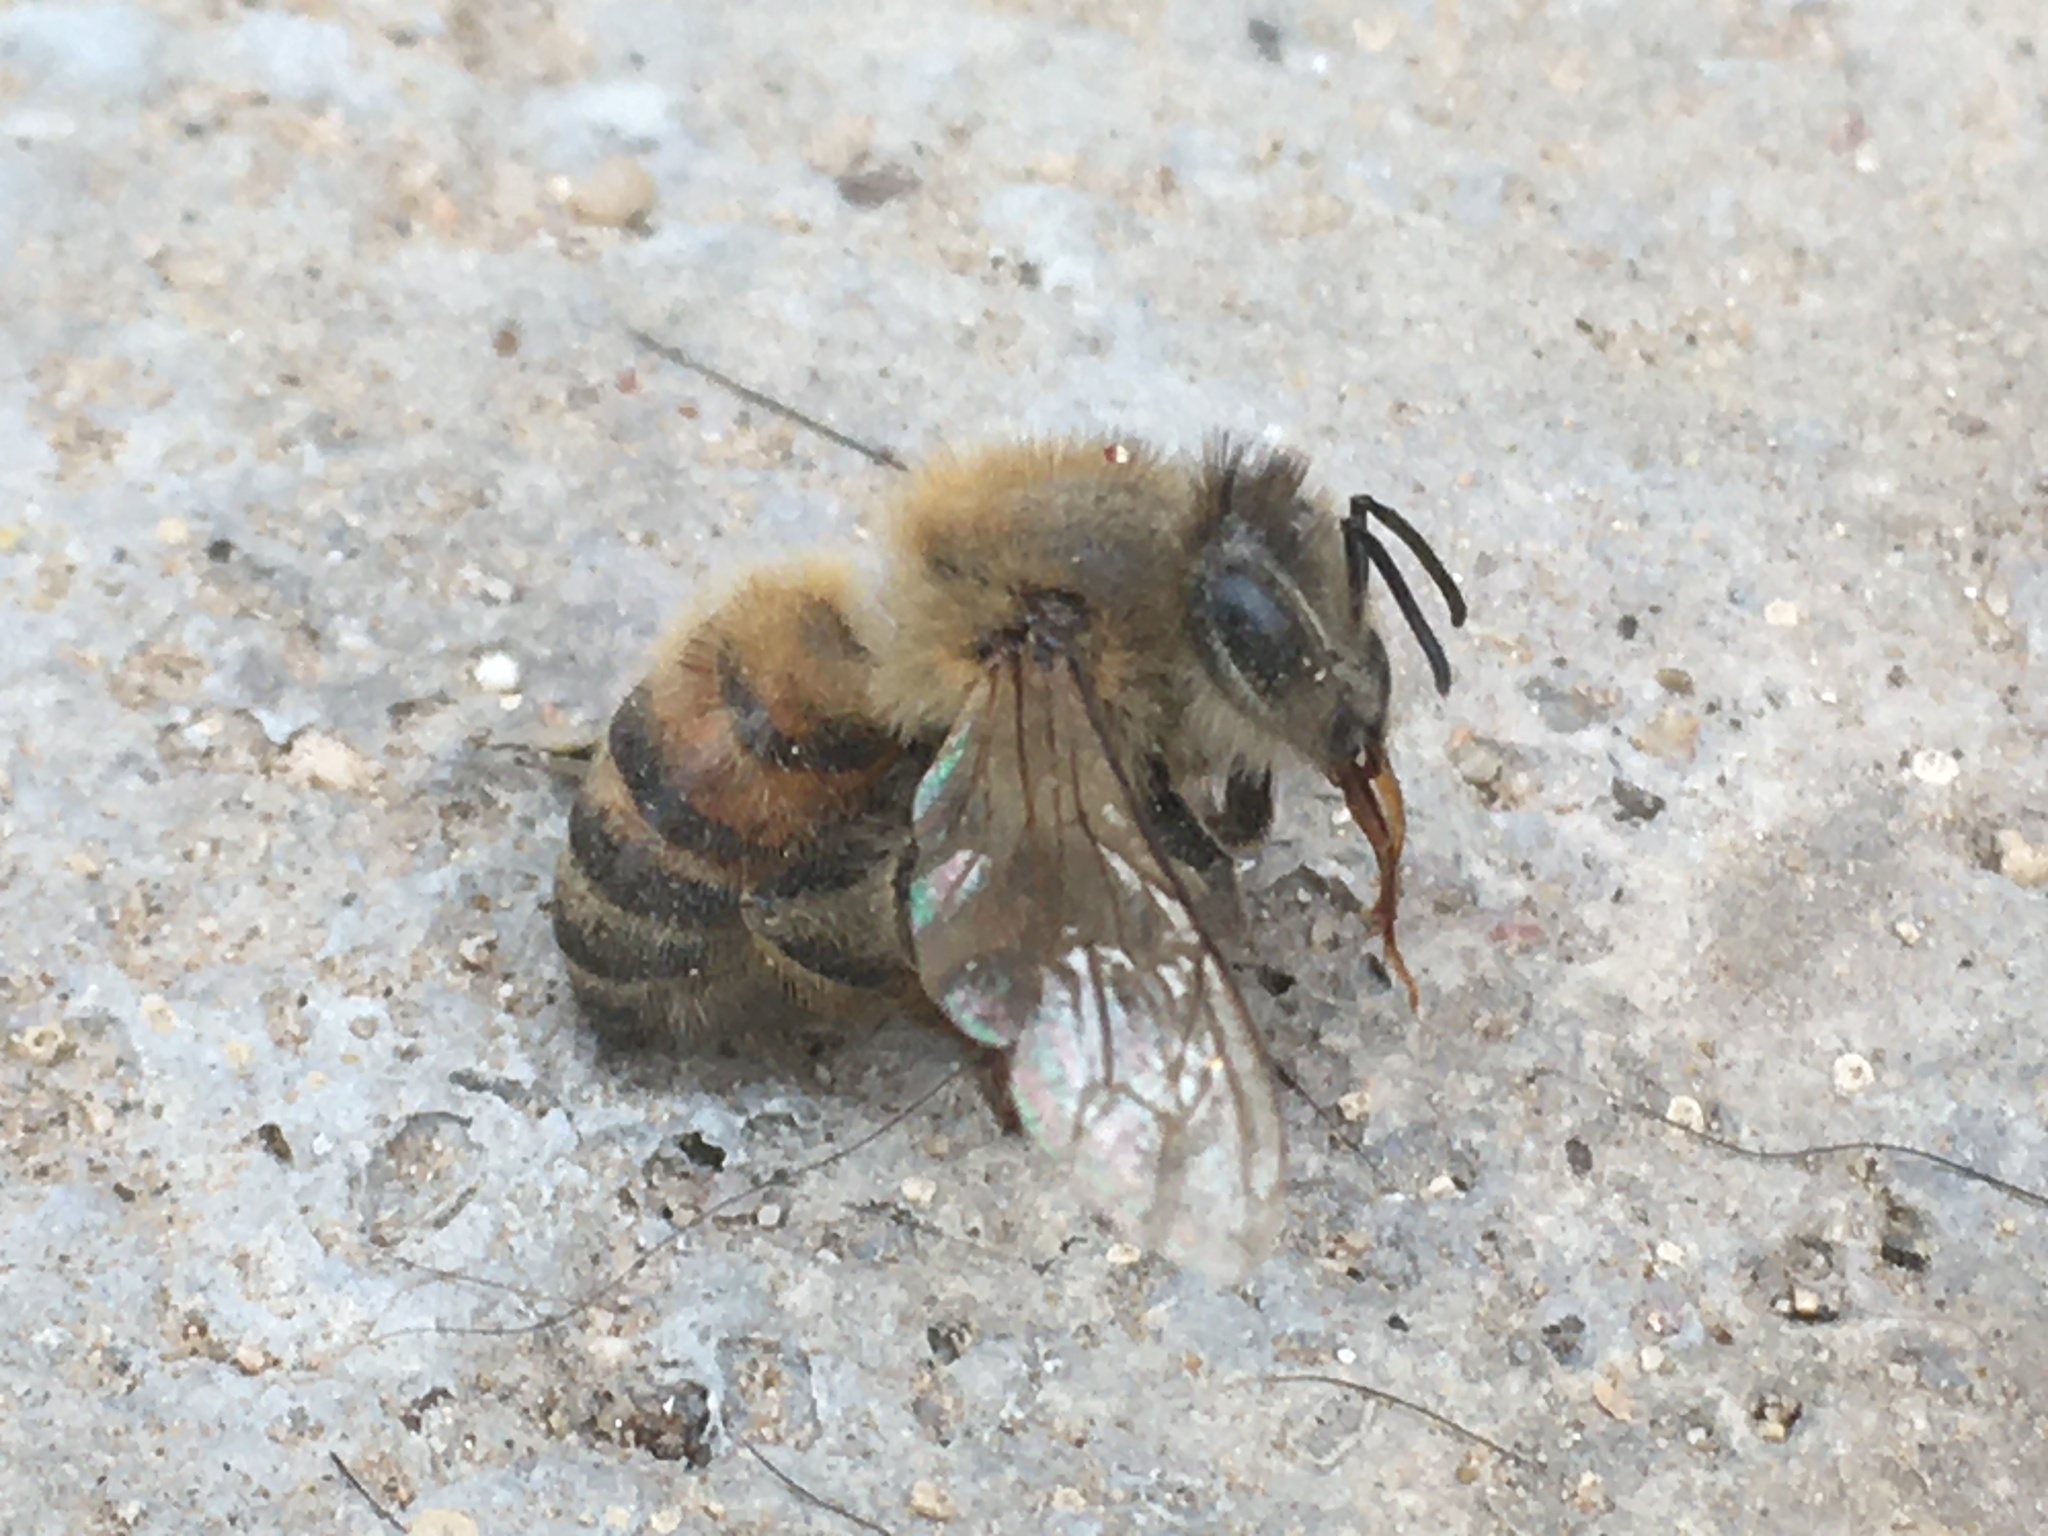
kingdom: Animalia
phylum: Arthropoda
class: Insecta
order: Hymenoptera
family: Apidae
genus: Apis
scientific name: Apis mellifera
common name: Honey bee
